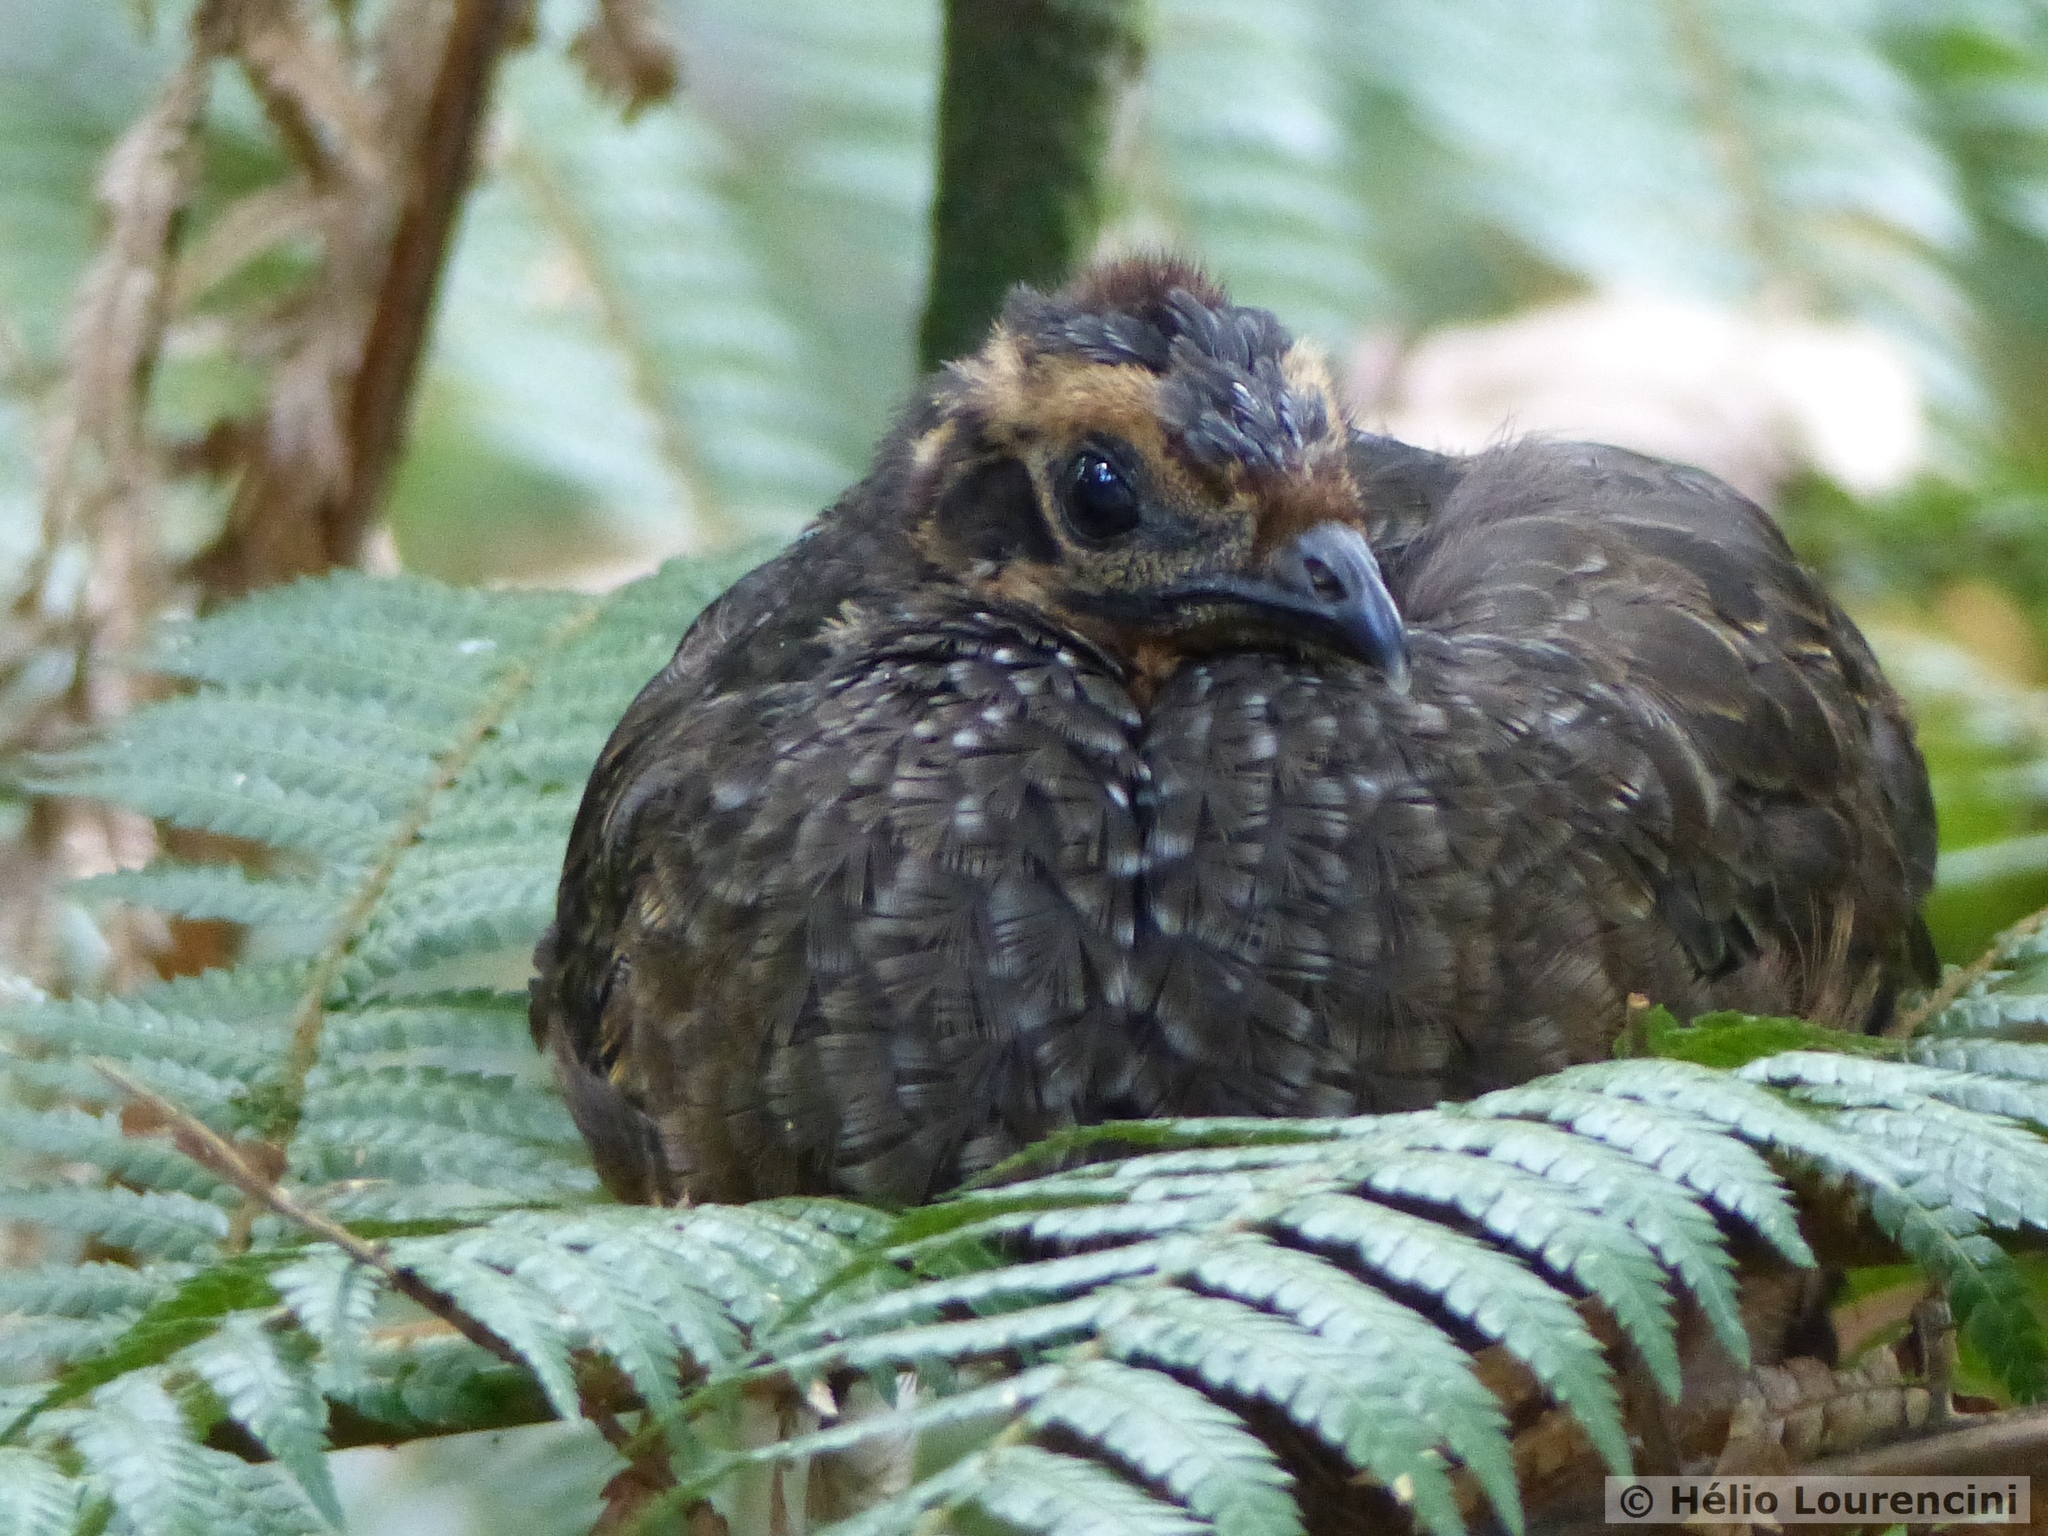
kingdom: Animalia
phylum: Chordata
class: Aves
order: Galliformes
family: Cracidae
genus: Penelope
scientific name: Penelope obscura
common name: Dusky-legged guan
